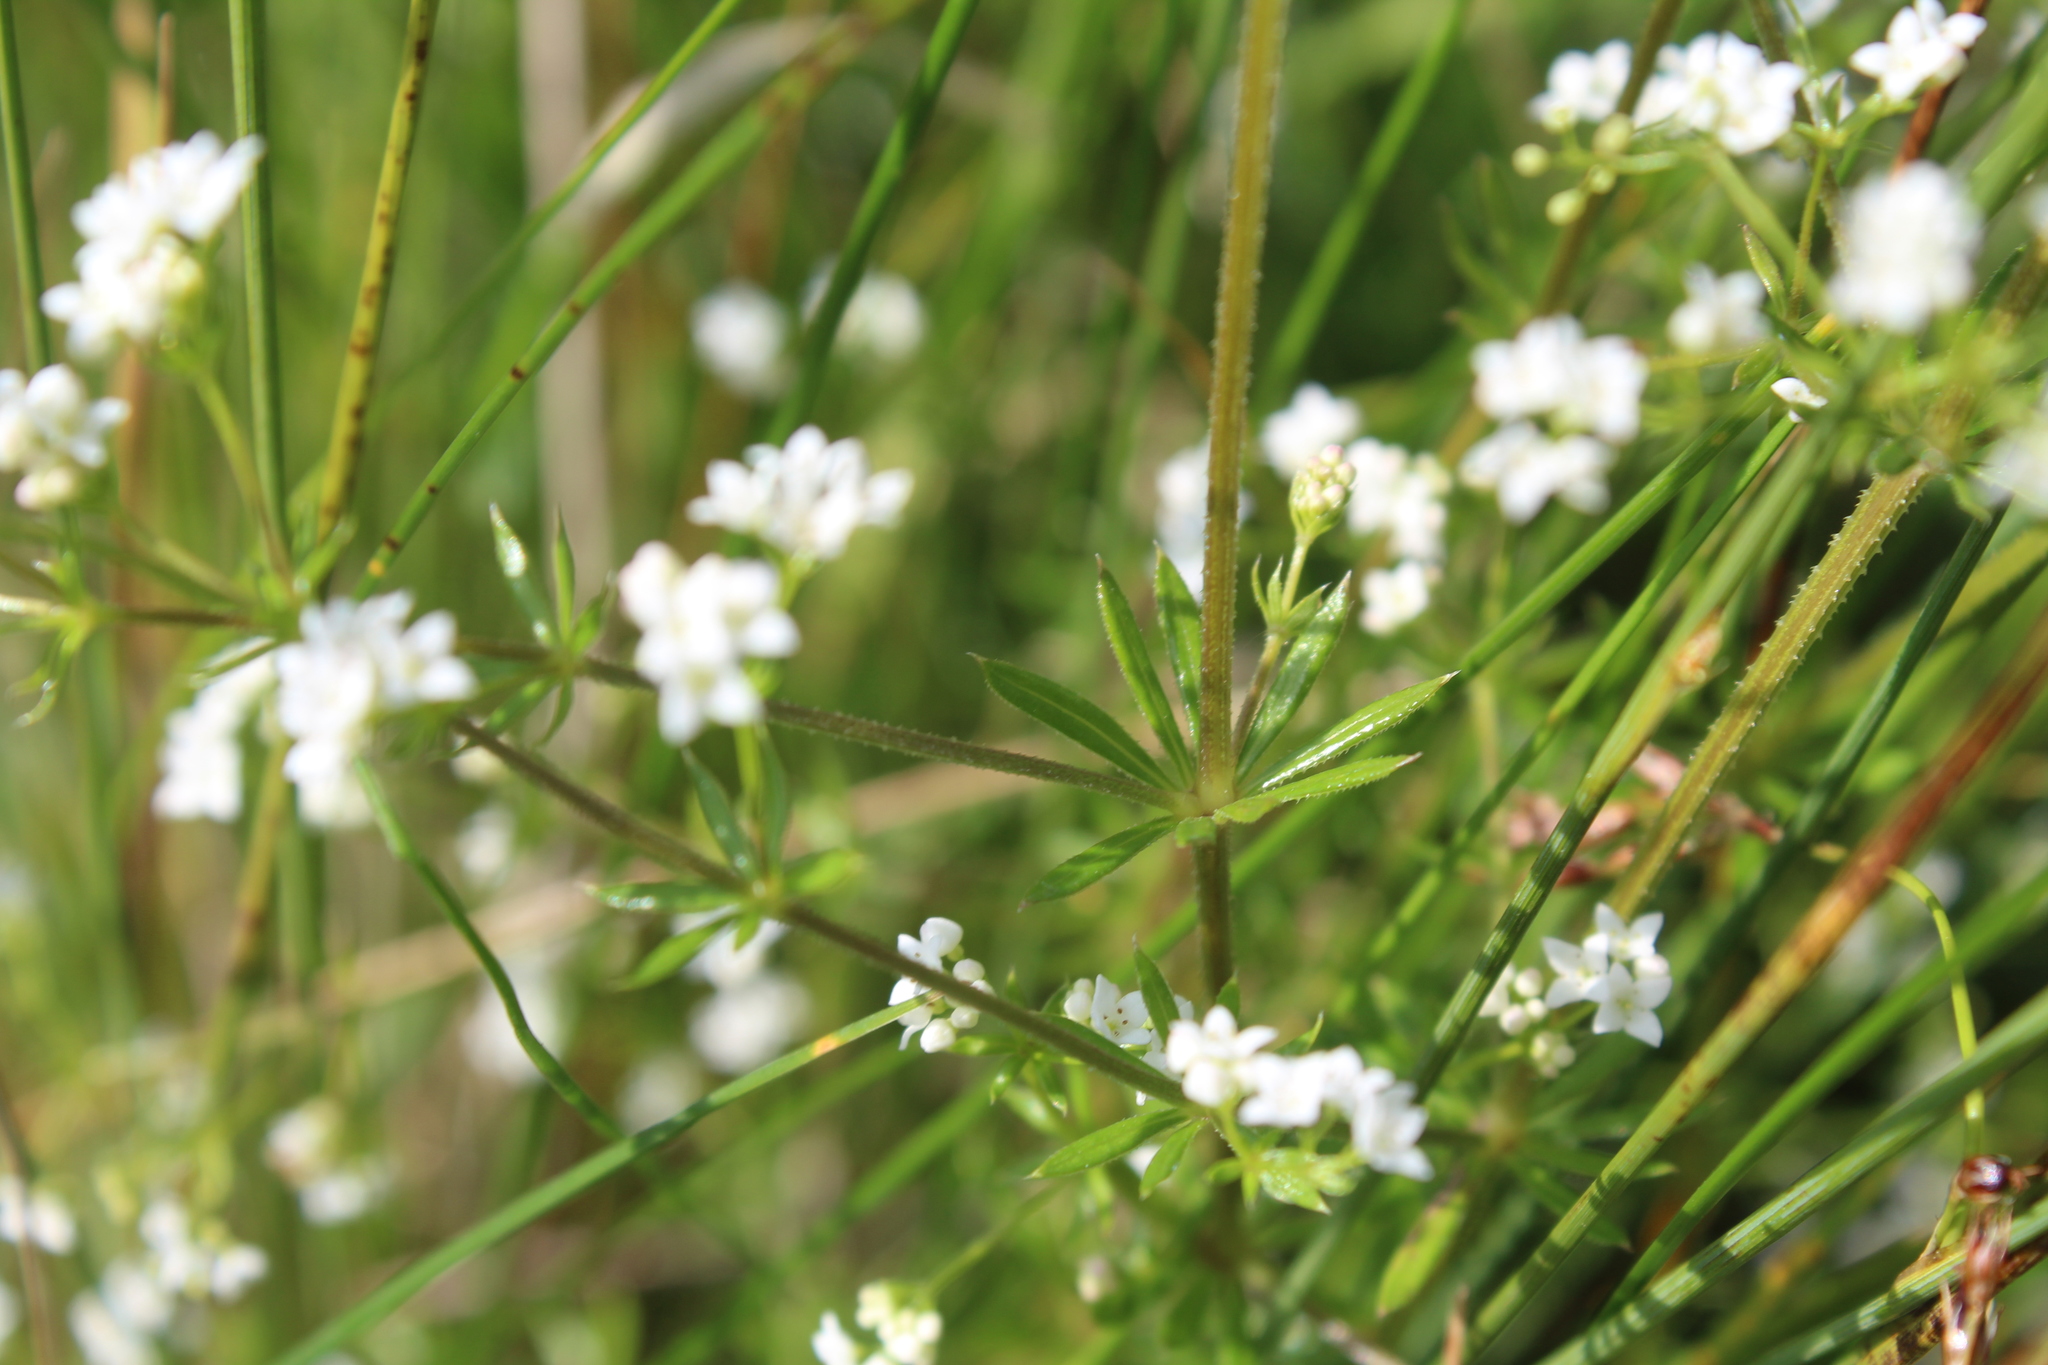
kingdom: Plantae
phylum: Tracheophyta
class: Magnoliopsida
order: Gentianales
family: Rubiaceae
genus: Galium
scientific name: Galium uliginosum
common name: Fen bedstraw
